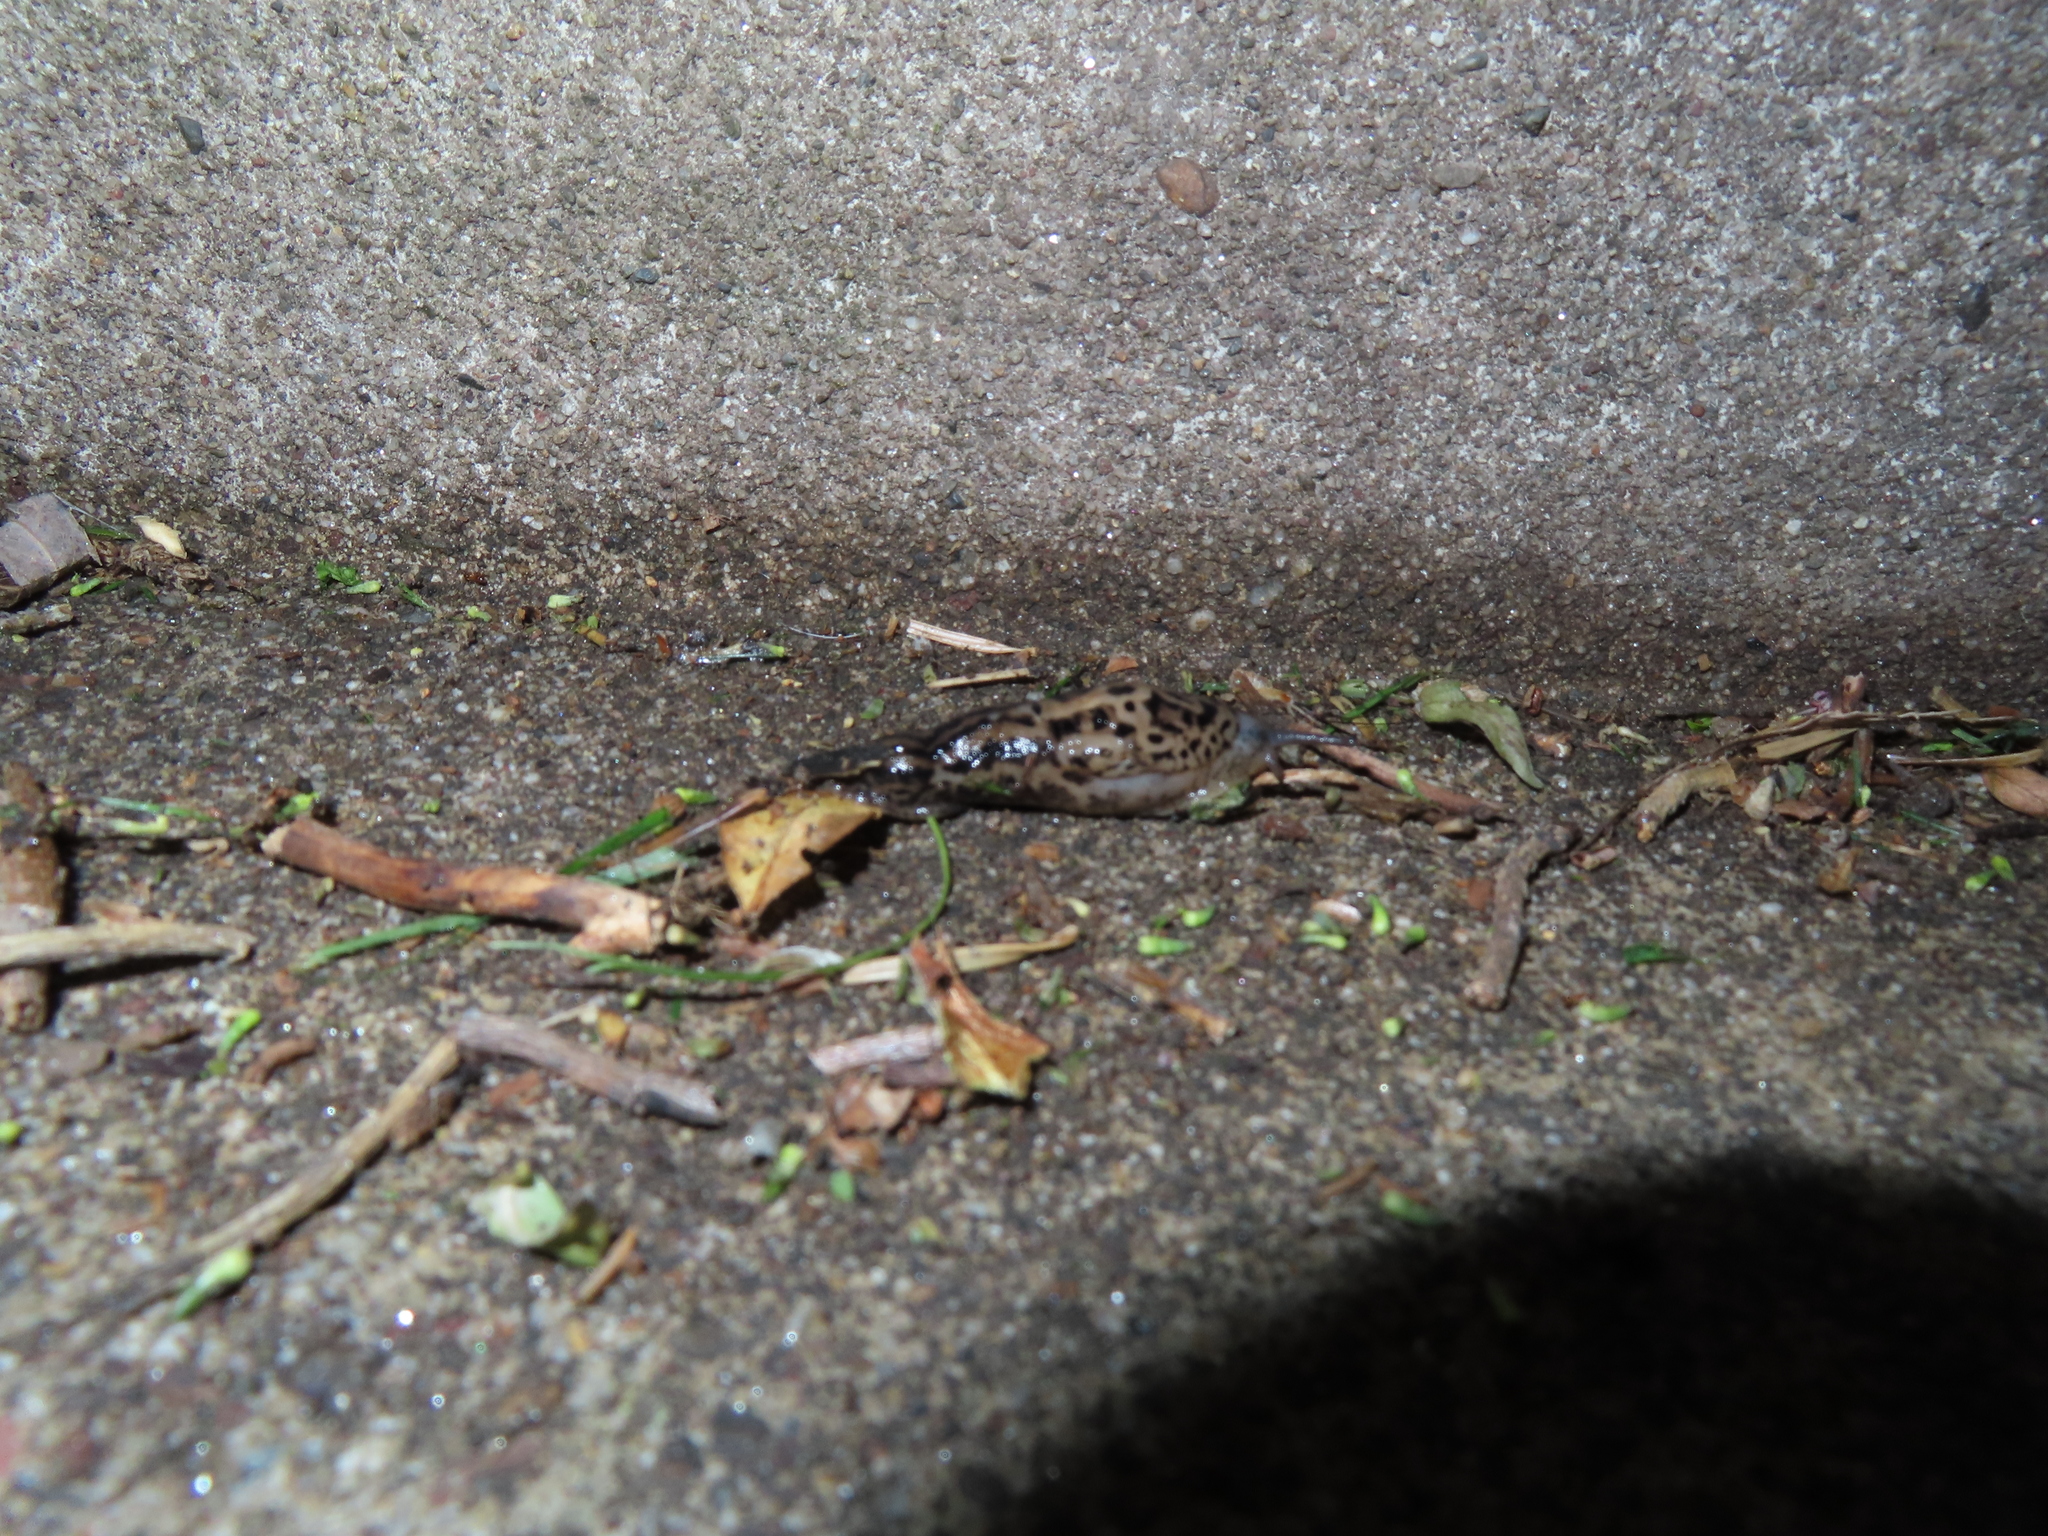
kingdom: Animalia
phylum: Mollusca
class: Gastropoda
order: Stylommatophora
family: Limacidae
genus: Limax
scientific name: Limax maximus
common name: Great grey slug
